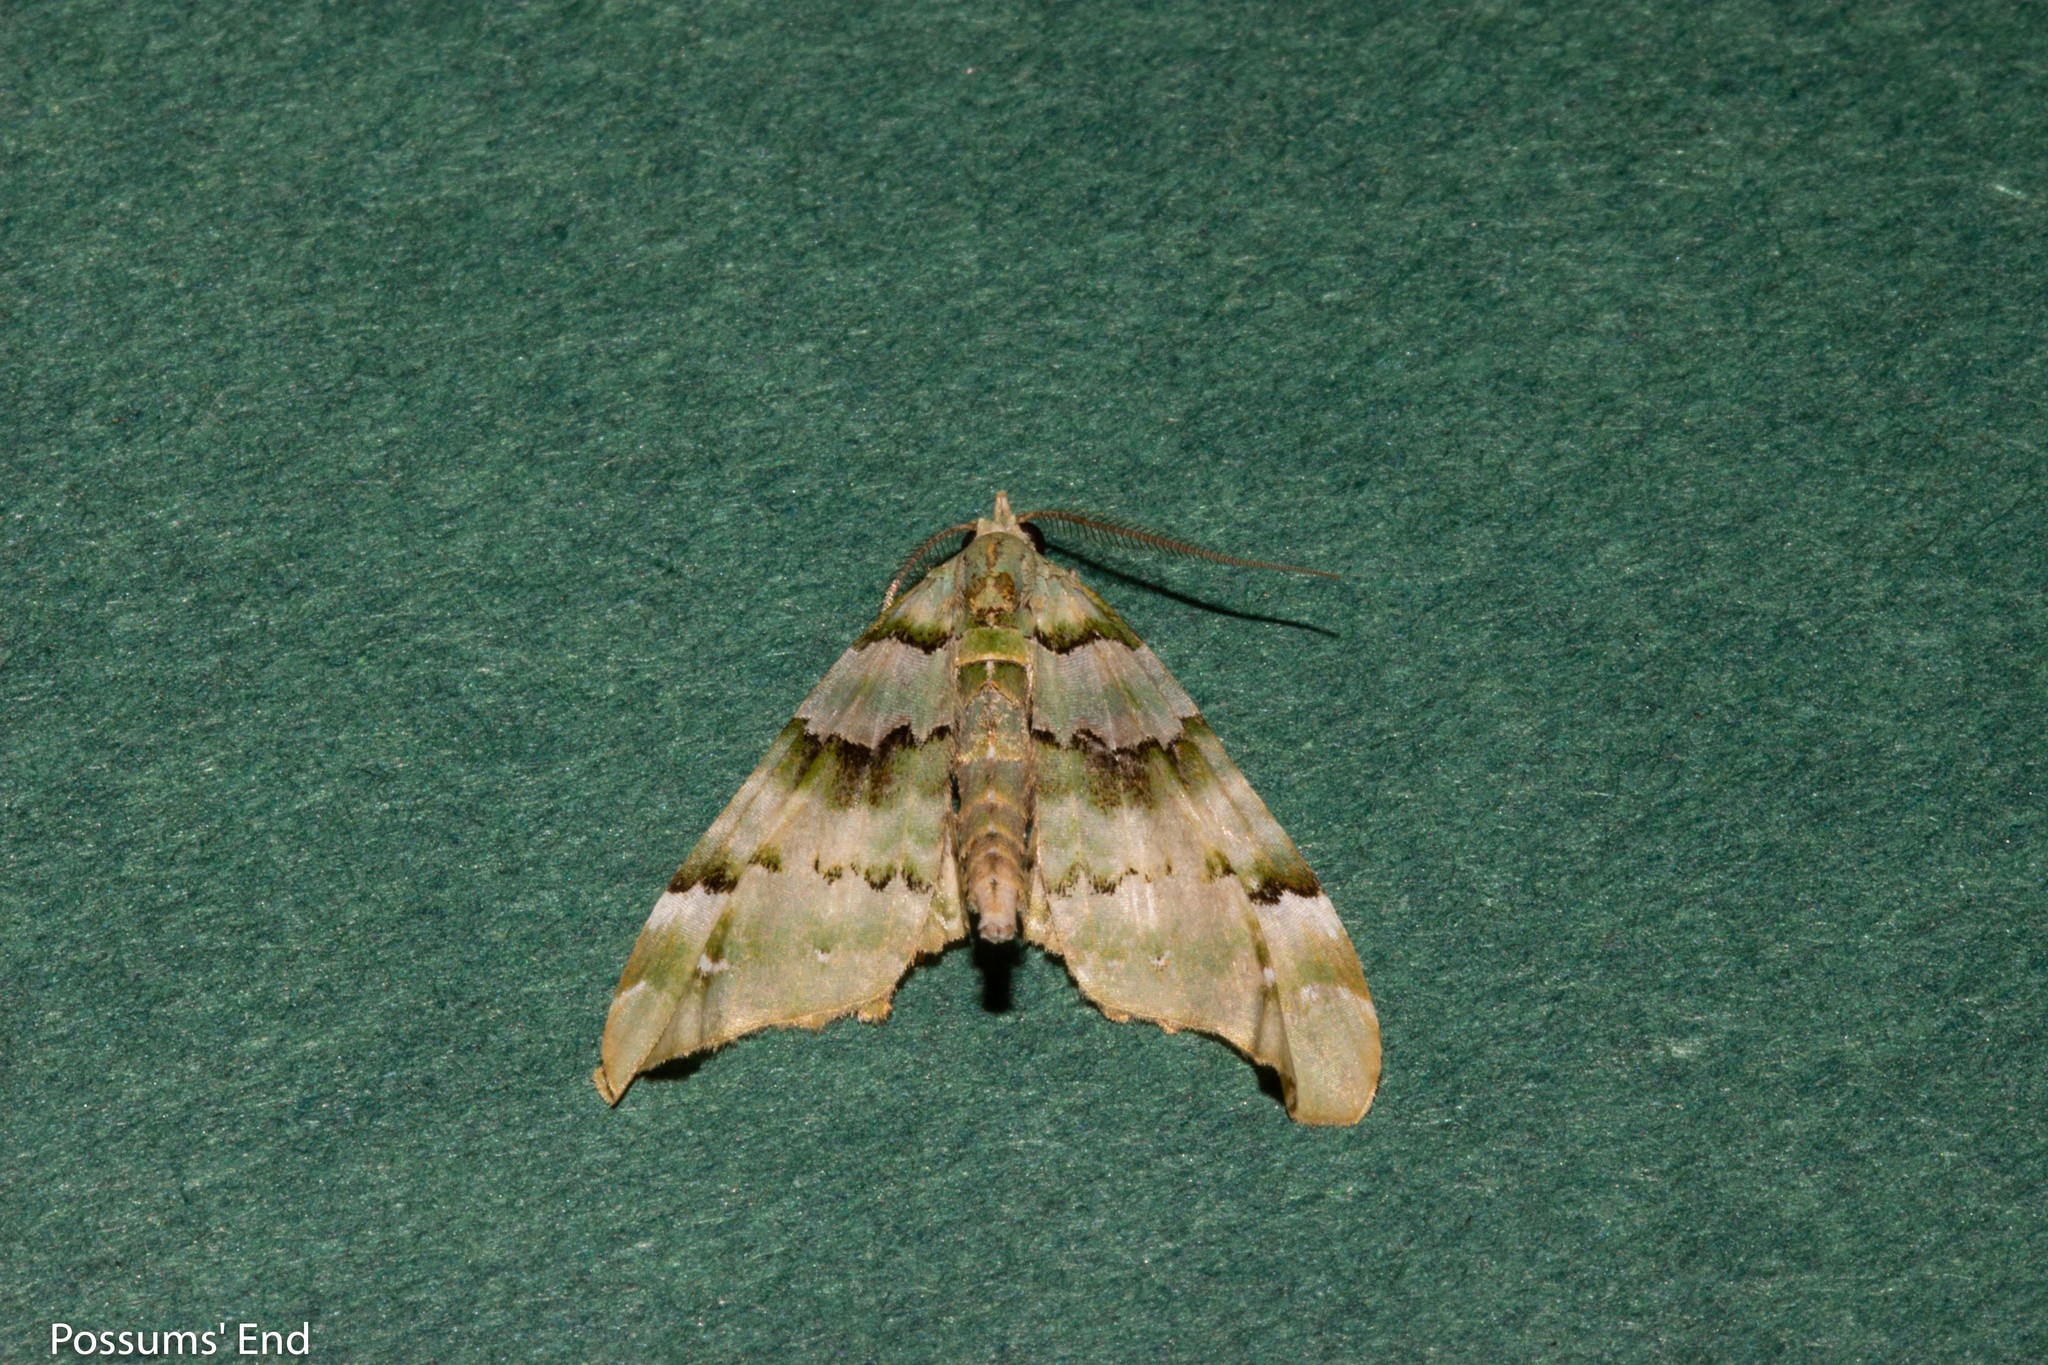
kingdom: Animalia
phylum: Arthropoda
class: Insecta
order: Lepidoptera
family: Geometridae
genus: Elvia
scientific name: Elvia glaucata
